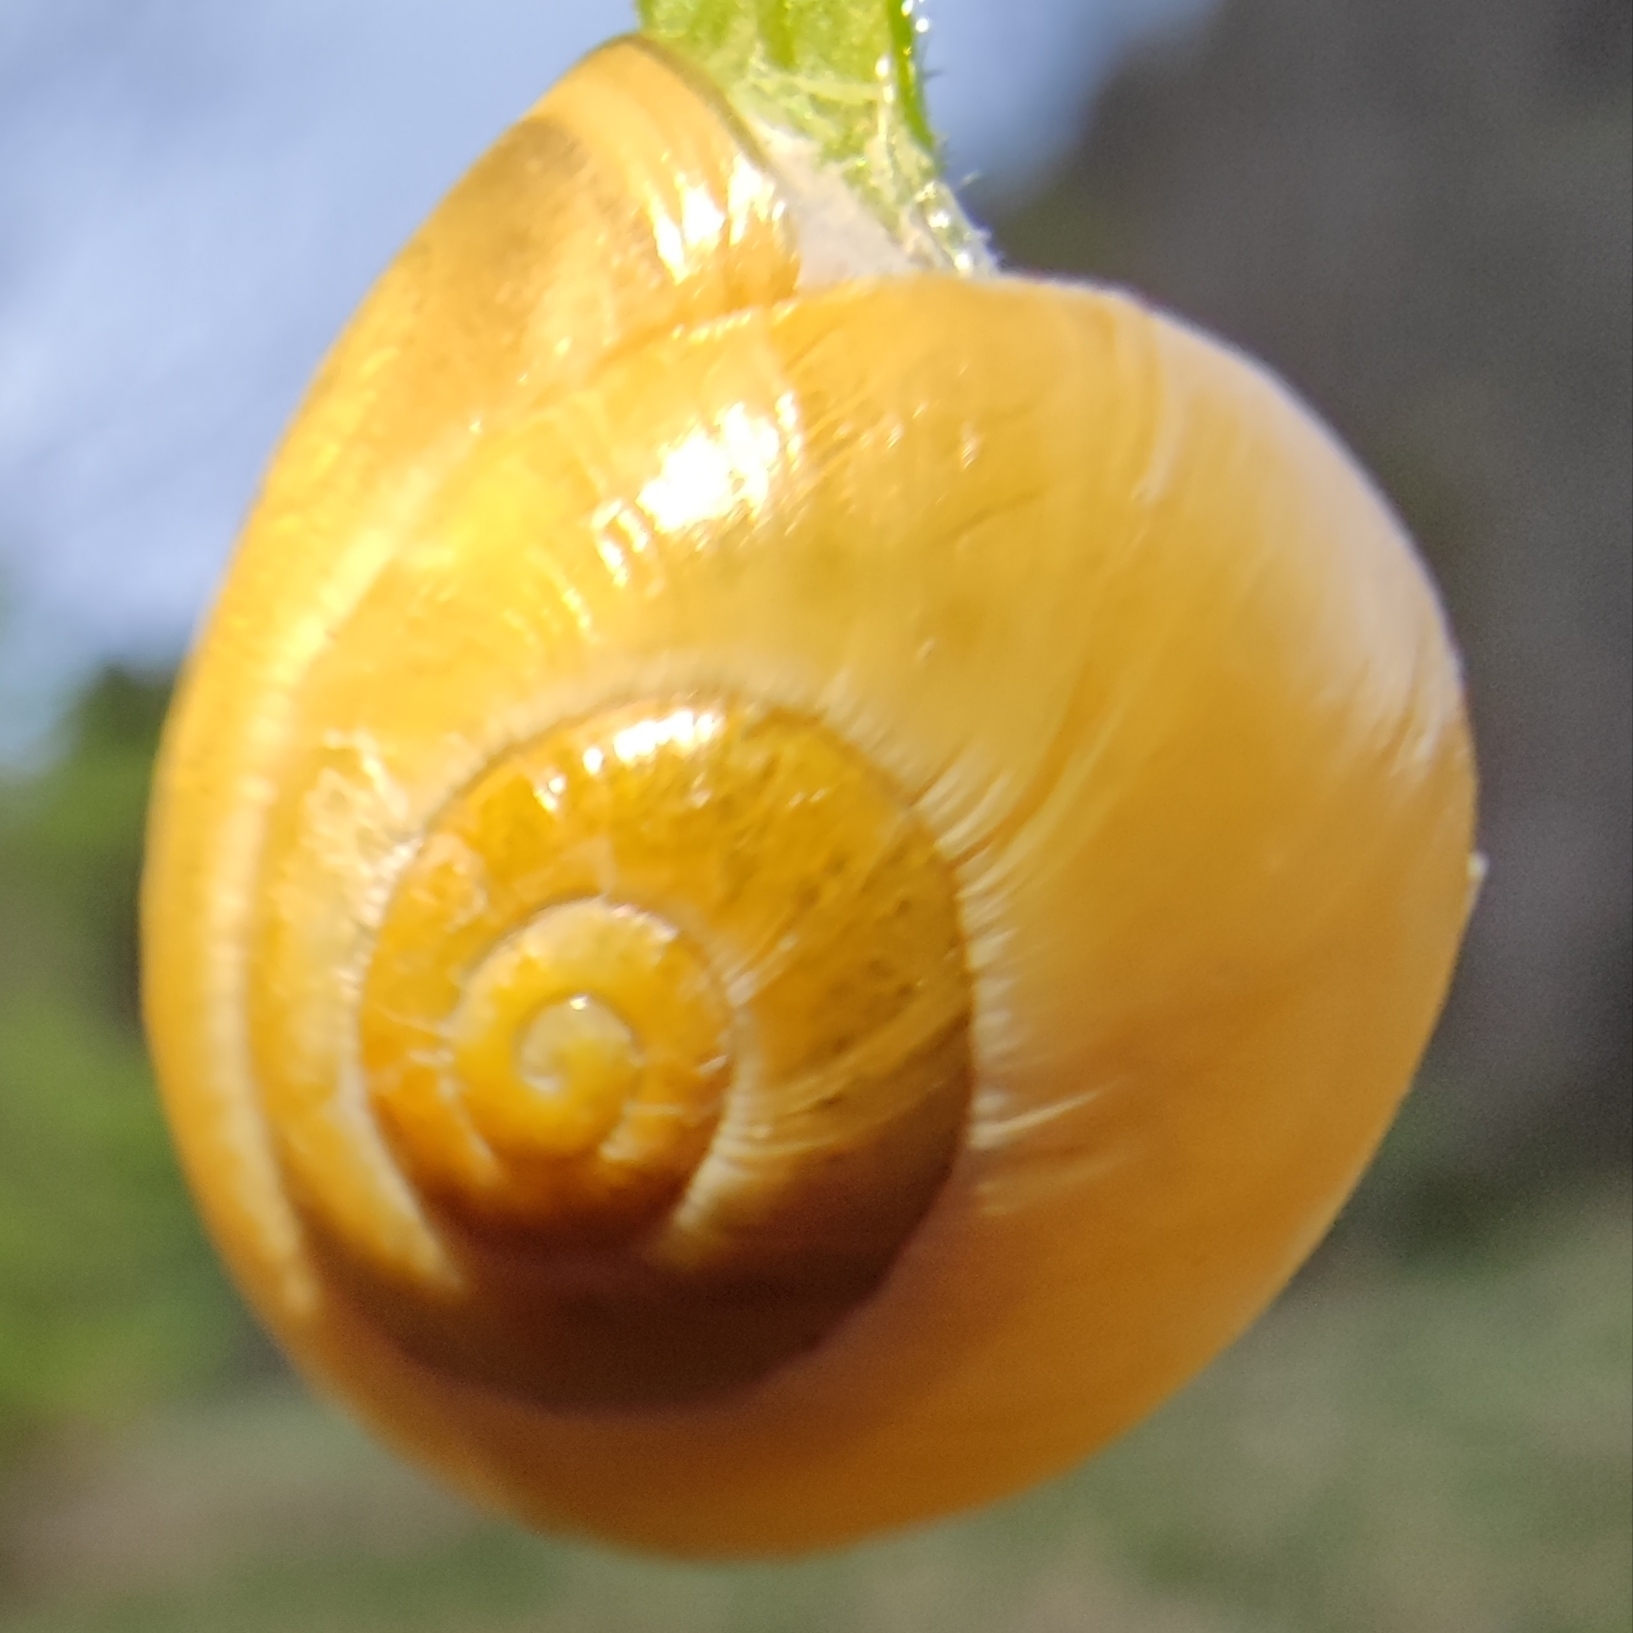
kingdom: Animalia
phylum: Mollusca
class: Gastropoda
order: Stylommatophora
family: Helicidae
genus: Cepaea
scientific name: Cepaea
